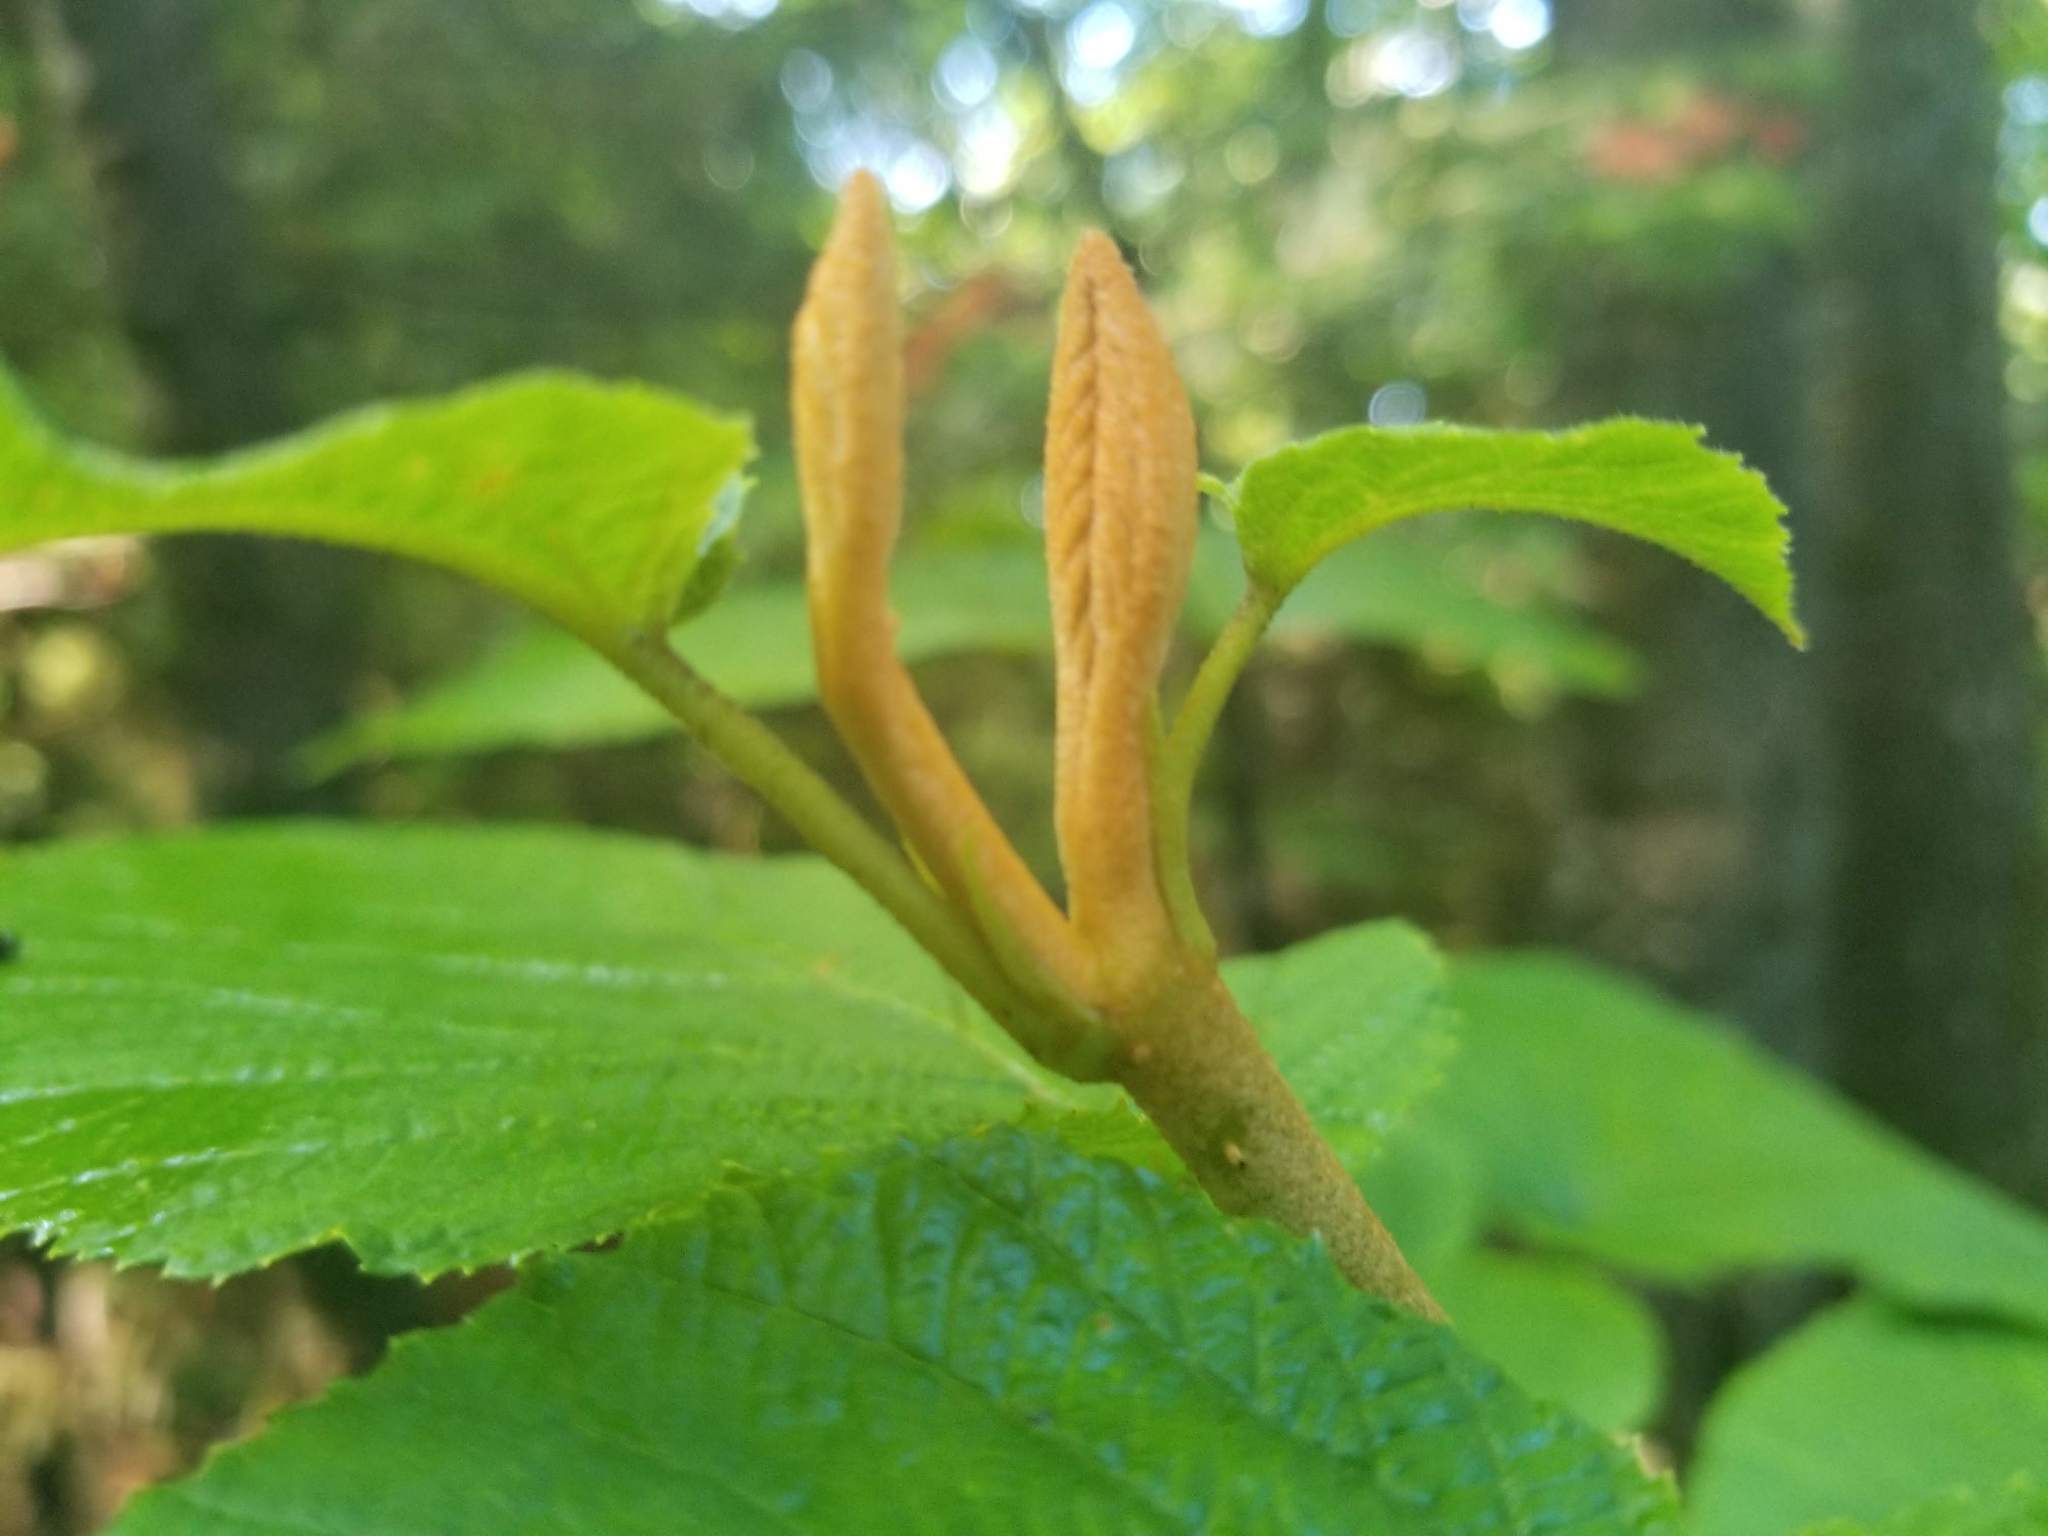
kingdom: Plantae
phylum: Tracheophyta
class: Magnoliopsida
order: Dipsacales
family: Viburnaceae
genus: Viburnum
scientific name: Viburnum lantanoides
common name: Hobblebush
